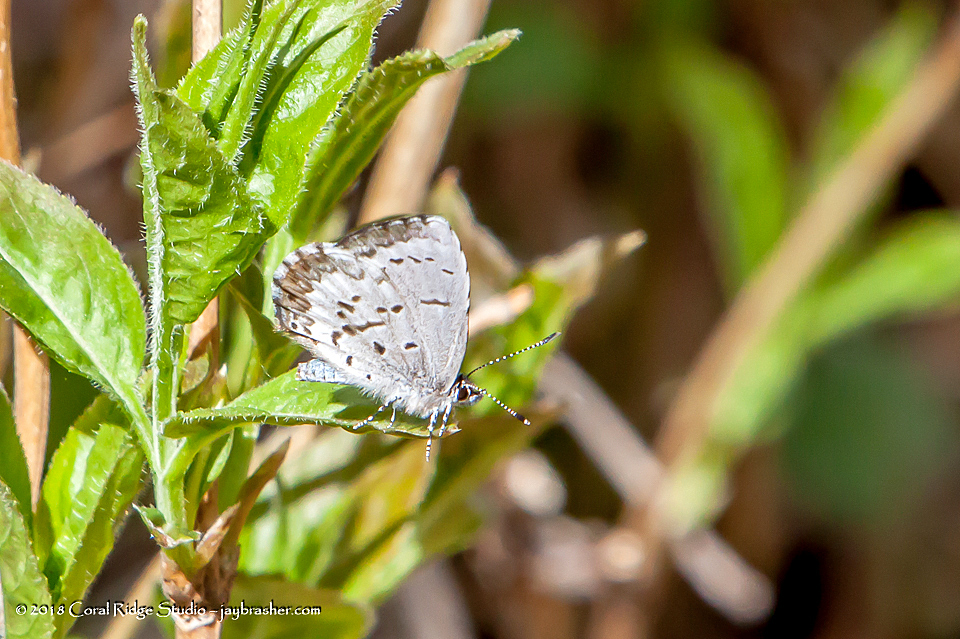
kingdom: Animalia
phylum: Arthropoda
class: Insecta
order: Lepidoptera
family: Lycaenidae
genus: Celastrina
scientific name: Celastrina lucia
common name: Lucia azure
